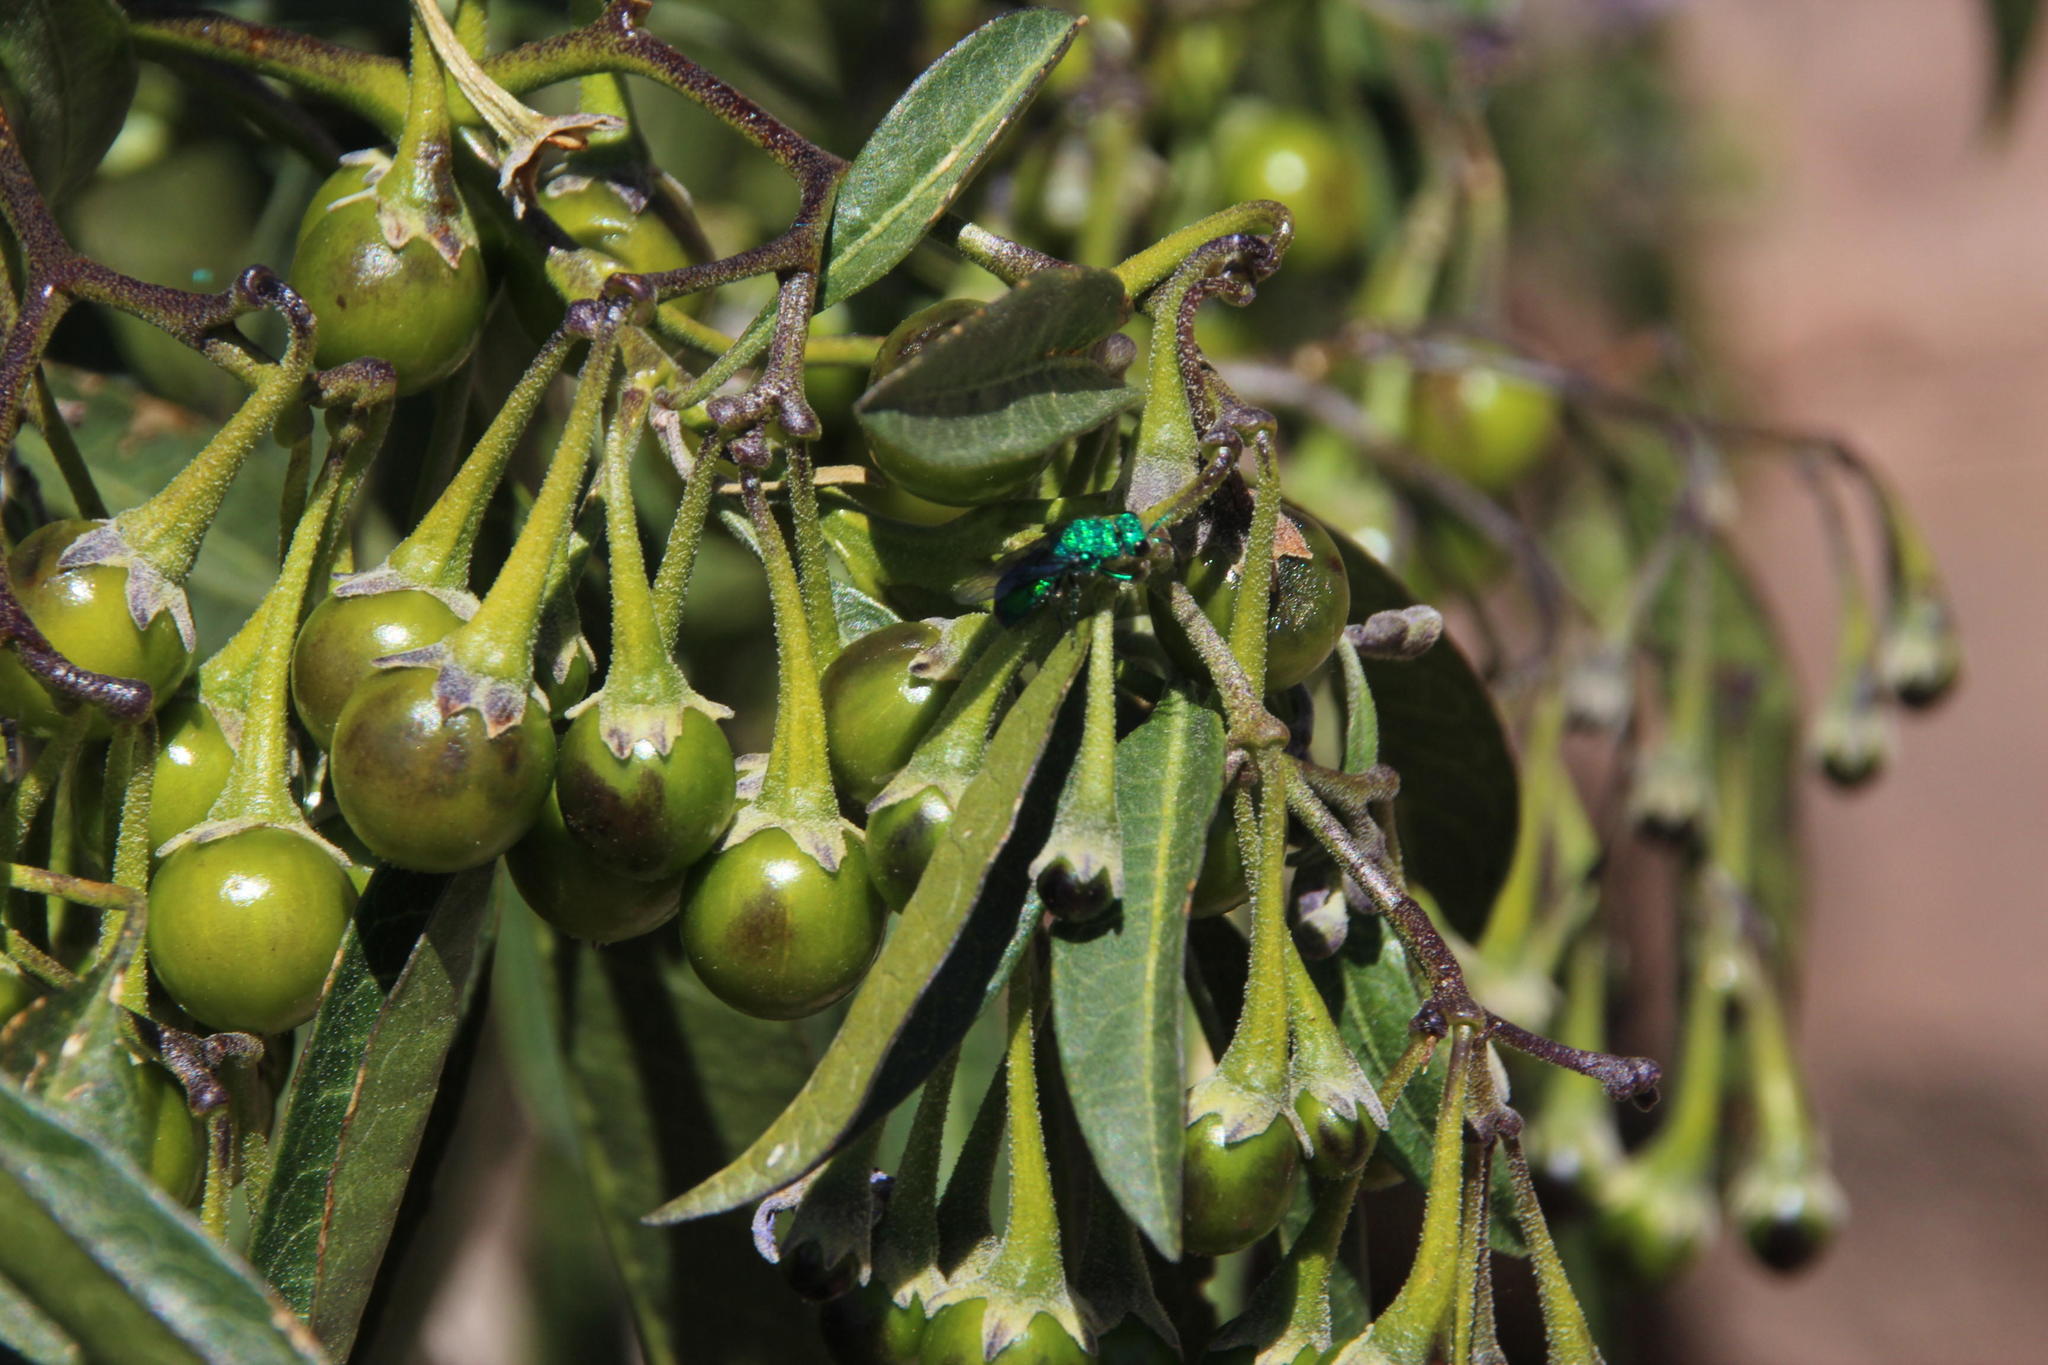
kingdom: Plantae
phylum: Tracheophyta
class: Magnoliopsida
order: Solanales
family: Solanaceae
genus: Solanum
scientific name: Solanum nitidum
